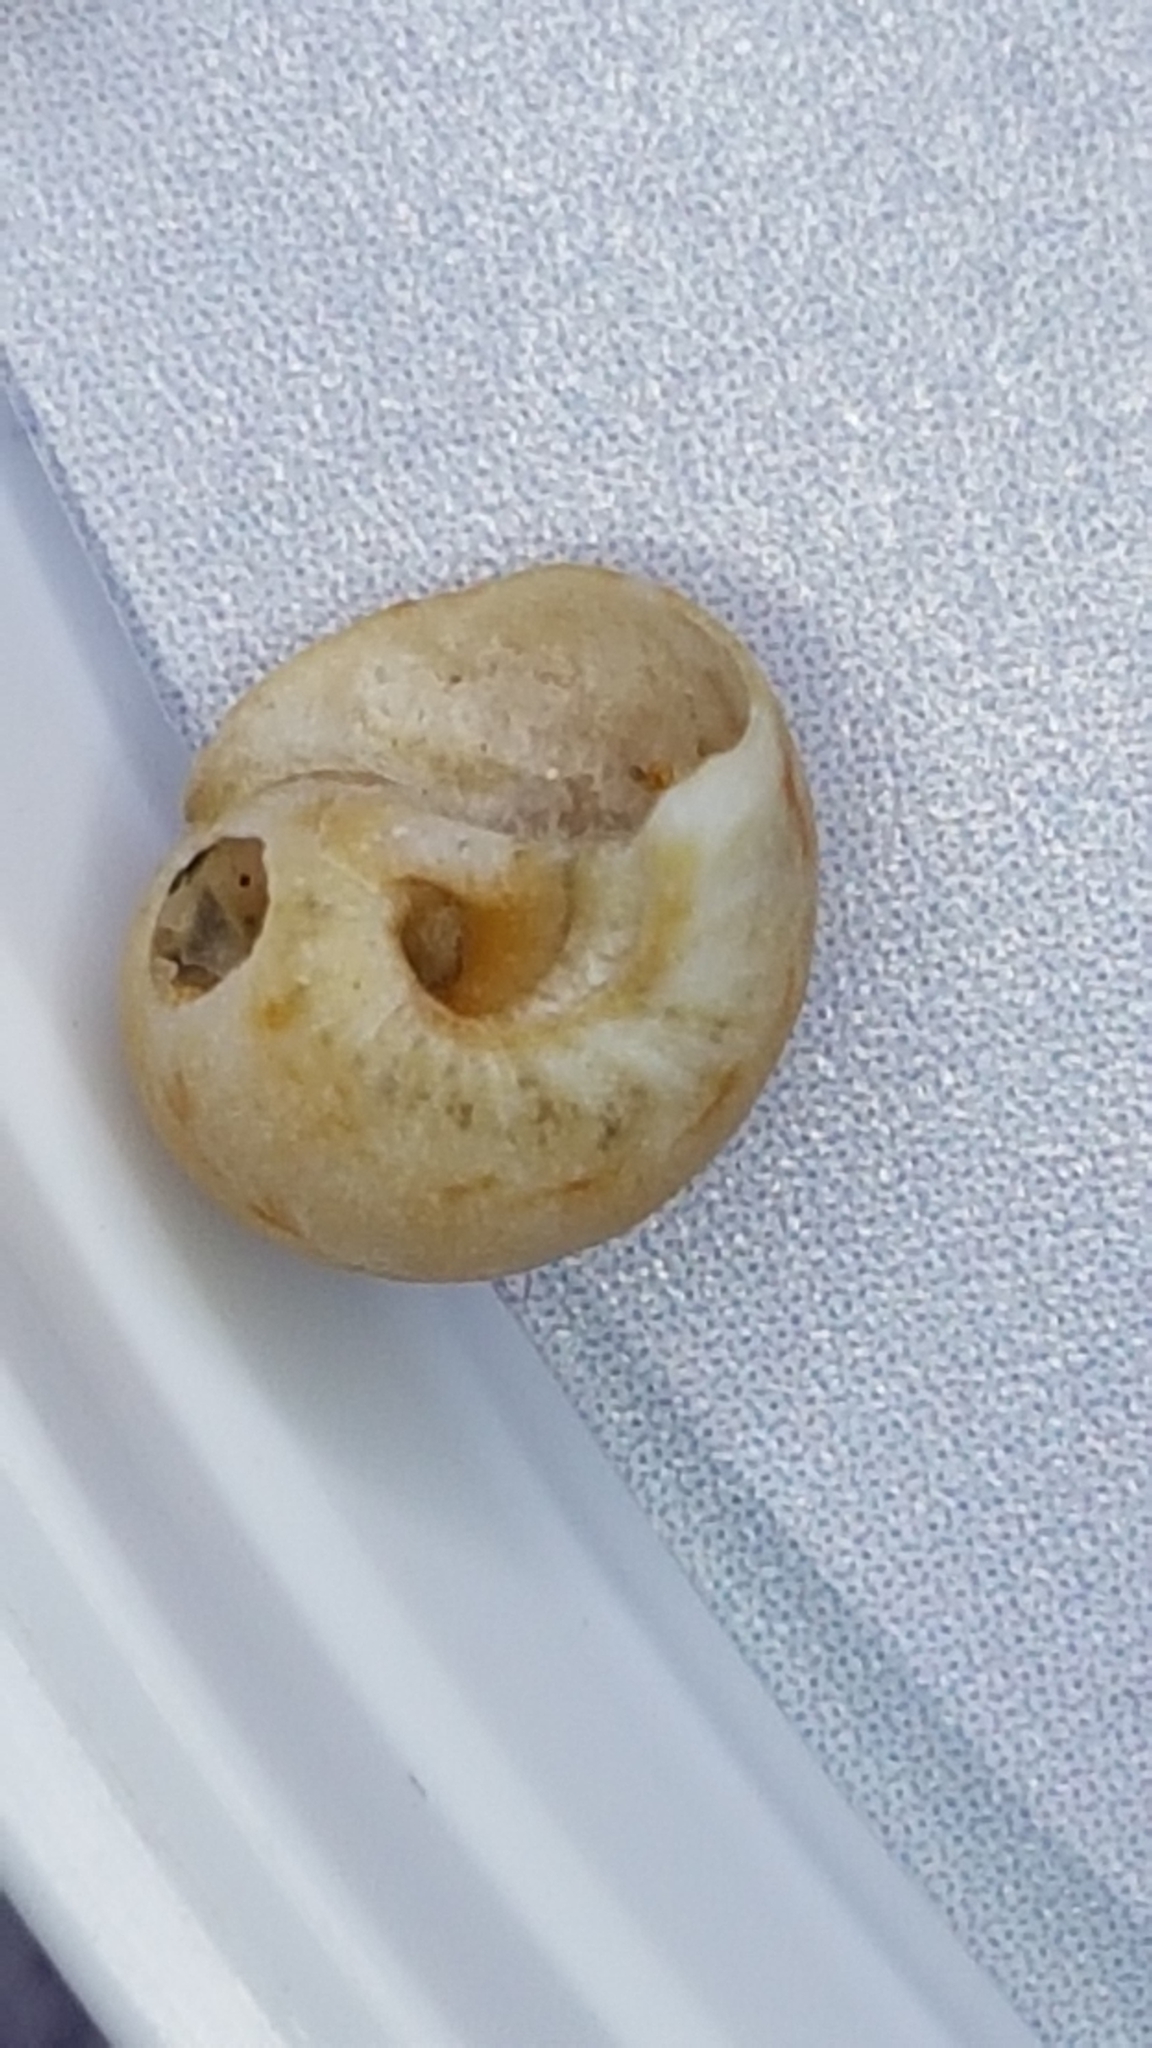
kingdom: Animalia
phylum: Mollusca
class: Gastropoda
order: Littorinimorpha
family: Naticidae
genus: Euspira
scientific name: Euspira nitida
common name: Alder's necklace shell
